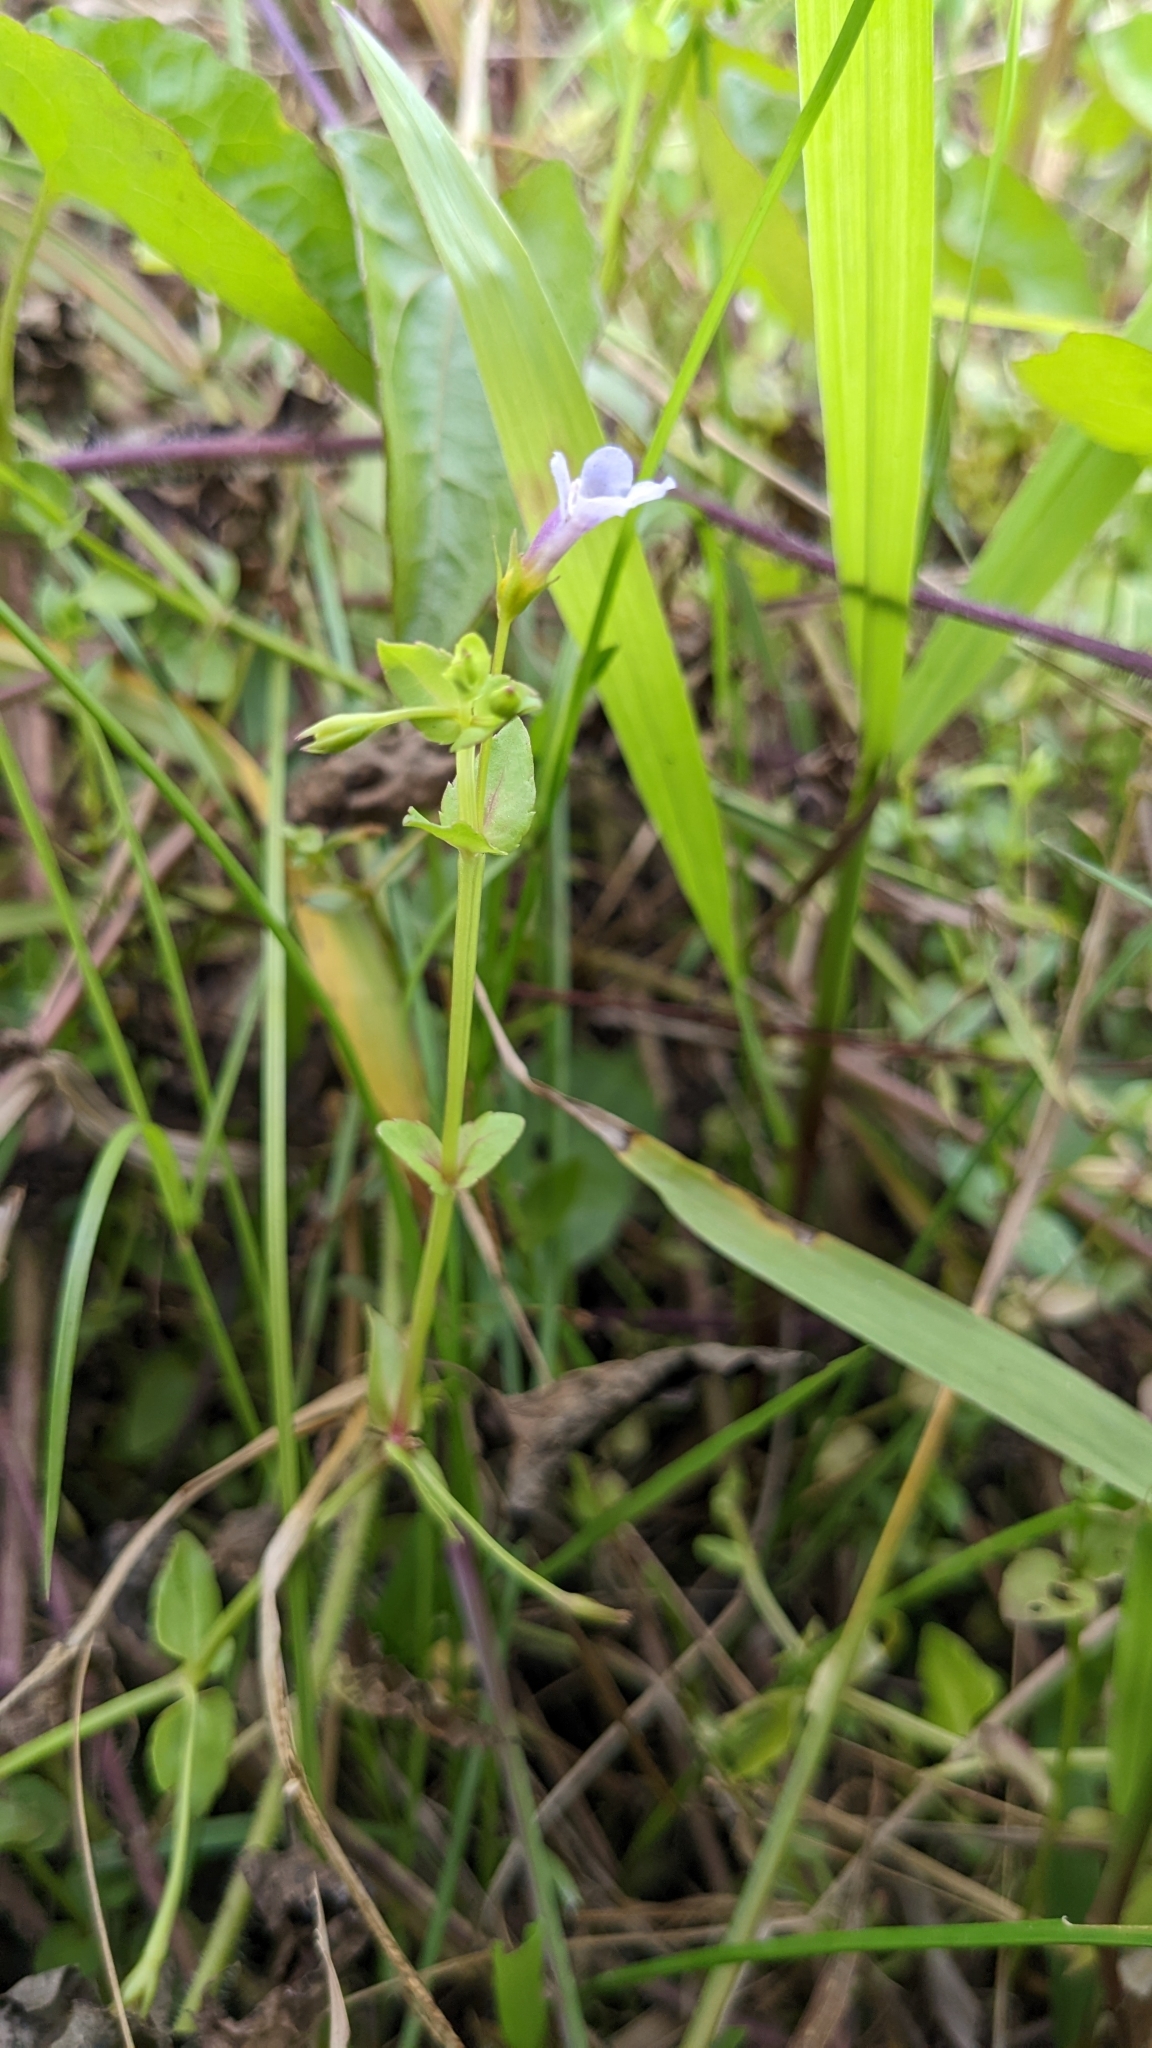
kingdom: Plantae
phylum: Tracheophyta
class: Magnoliopsida
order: Lamiales
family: Linderniaceae
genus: Torenia
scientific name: Torenia anagallis
